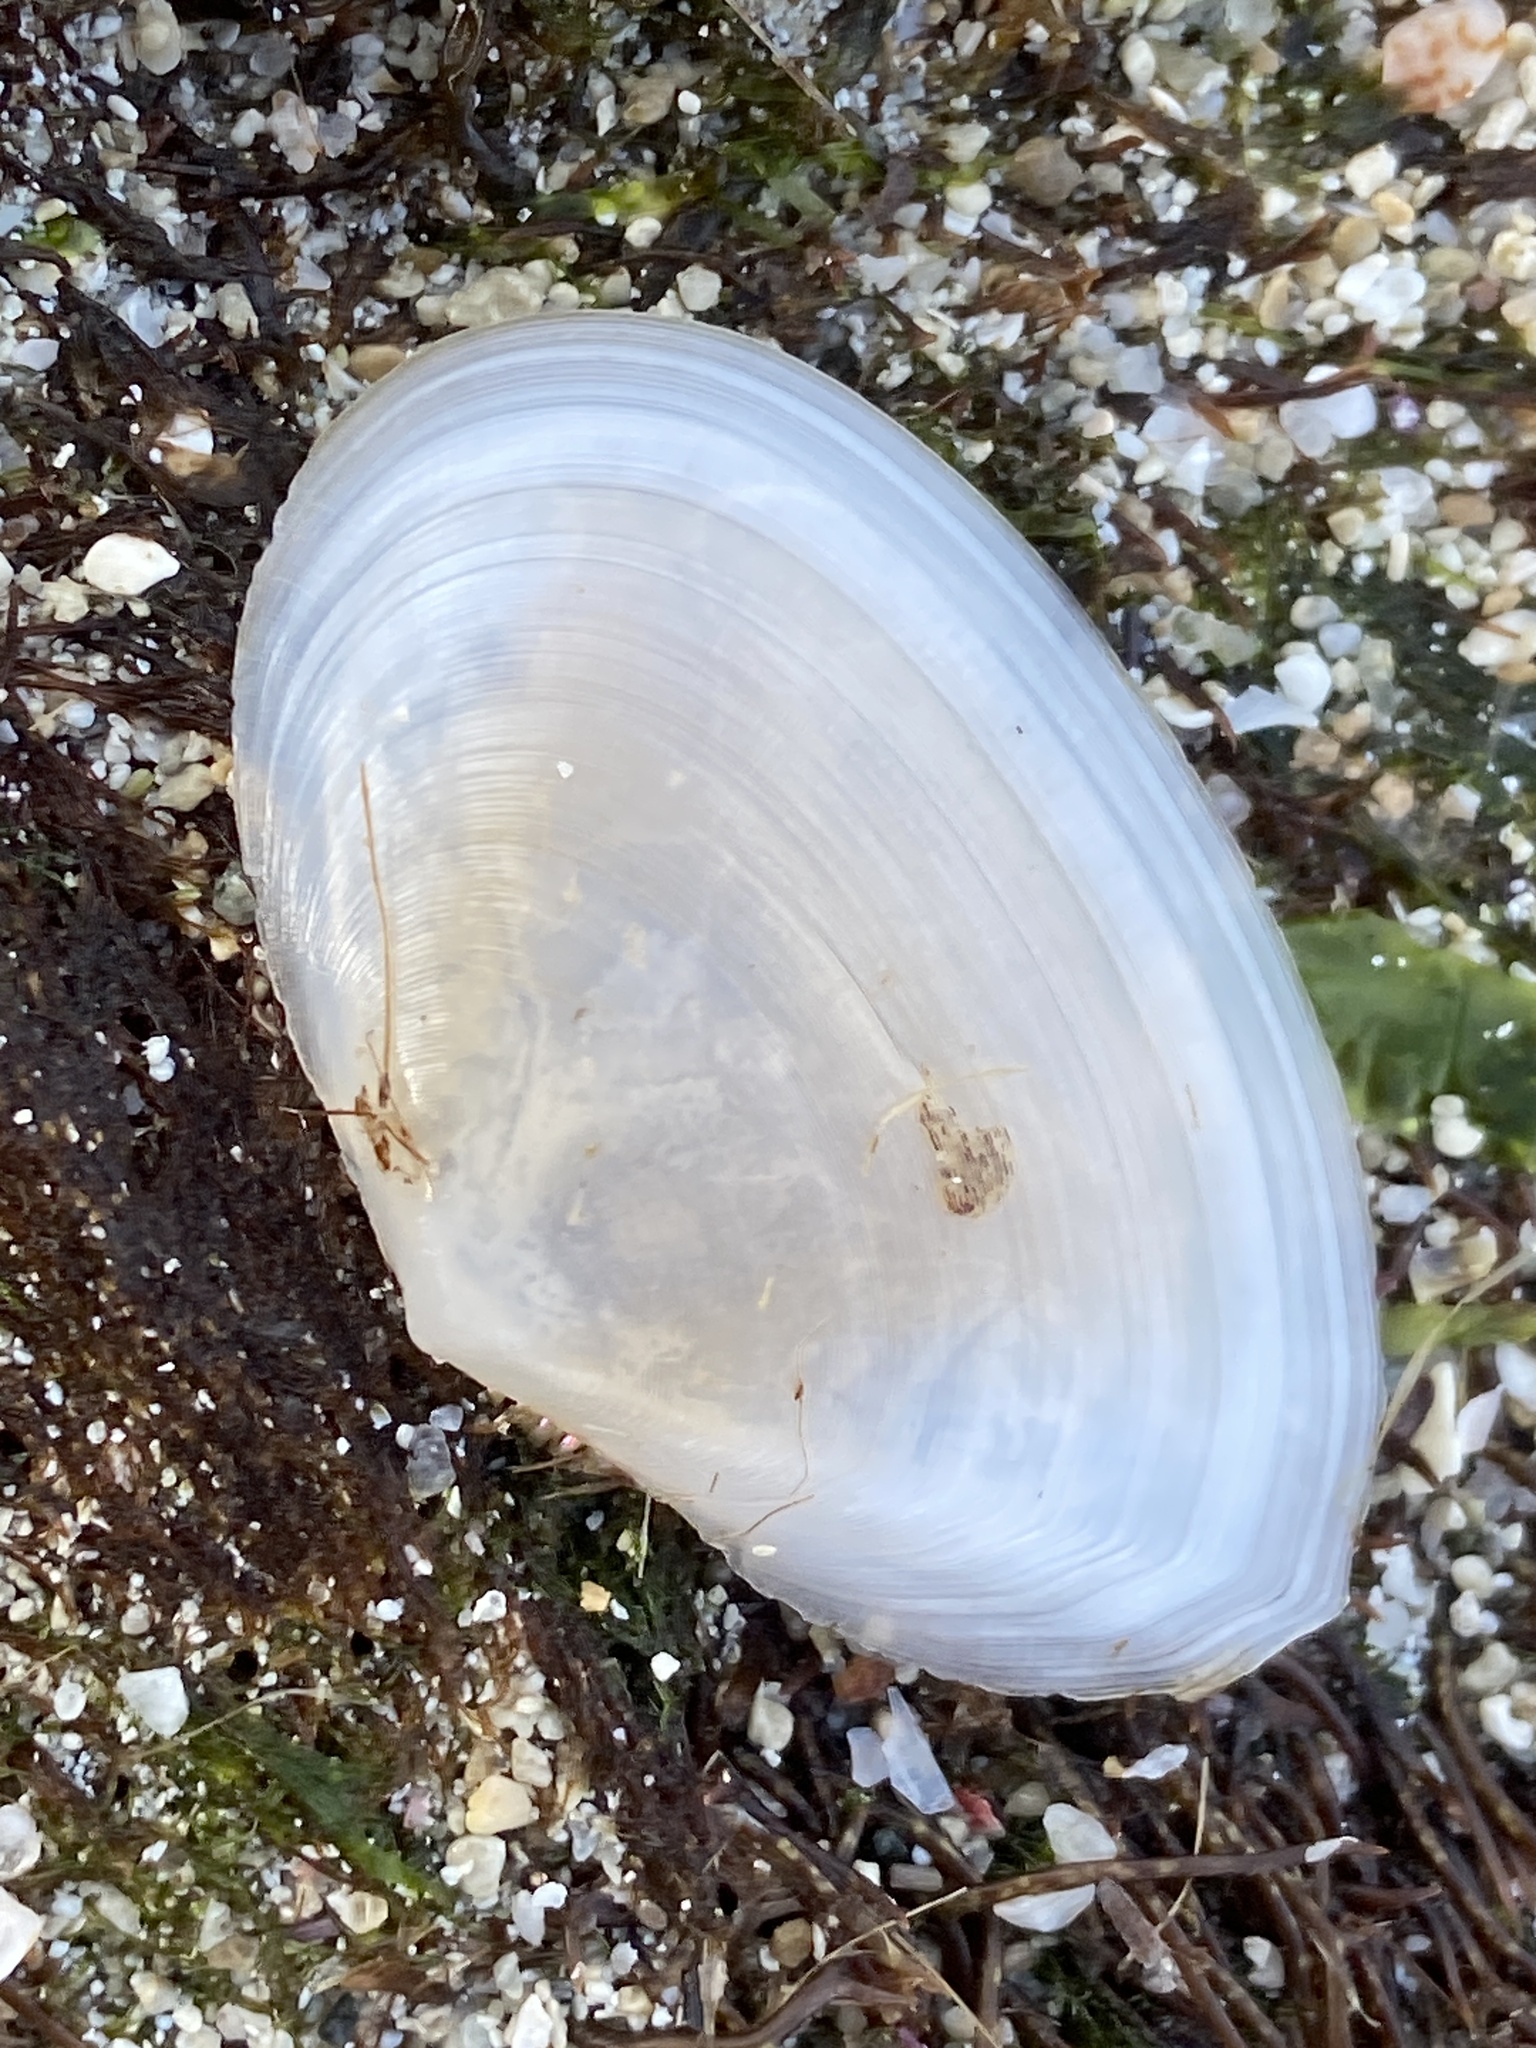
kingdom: Animalia
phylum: Mollusca
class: Bivalvia
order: Cardiida
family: Tellinidae
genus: Peronaea
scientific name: Peronaea planata
